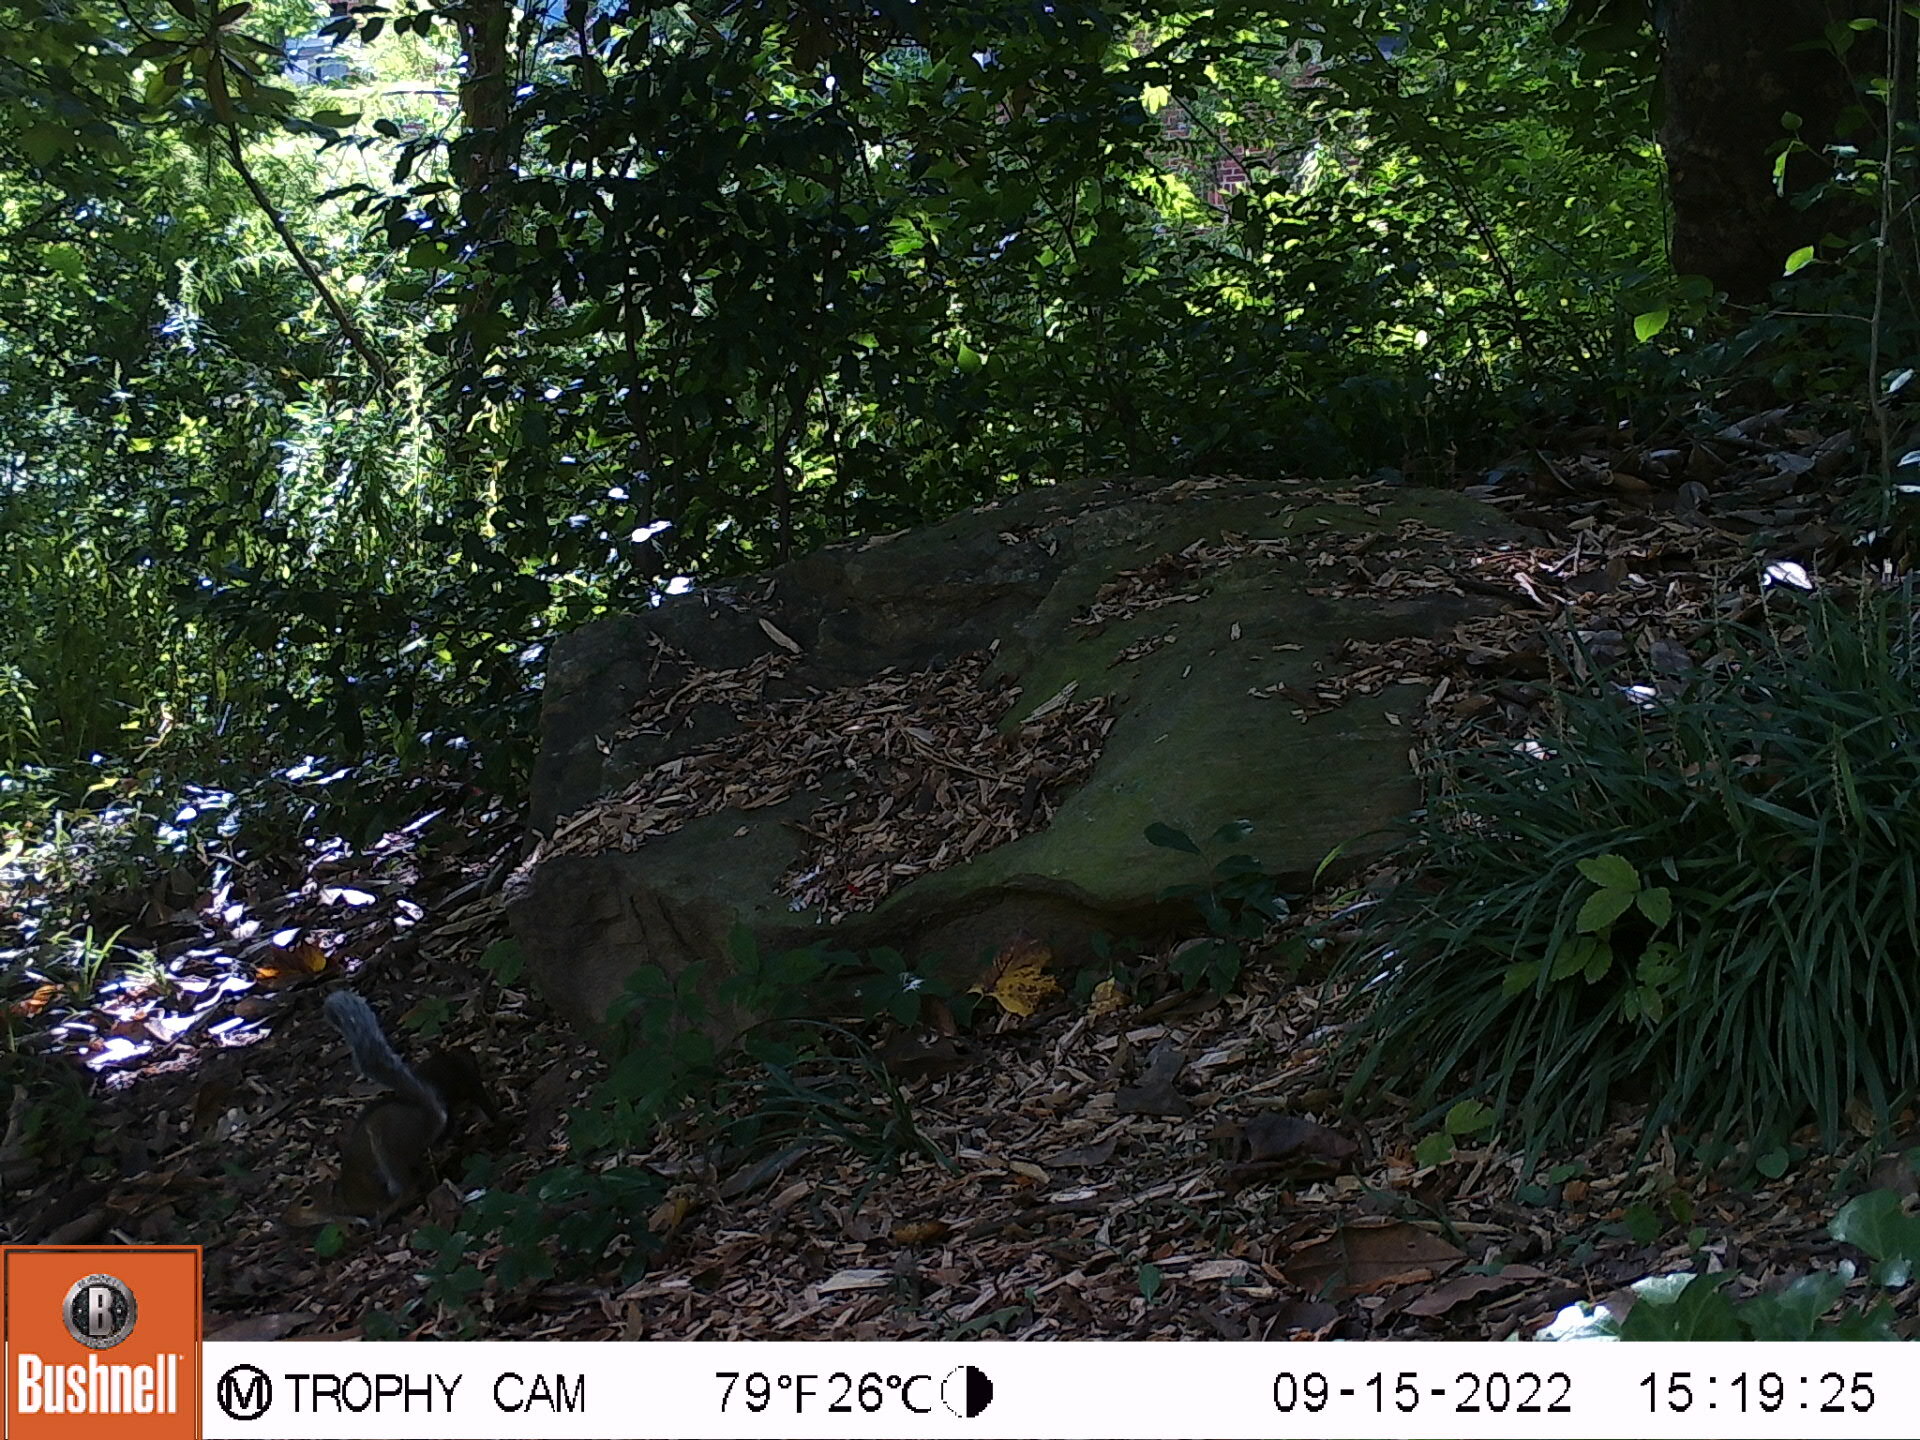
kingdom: Animalia
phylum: Chordata
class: Mammalia
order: Rodentia
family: Sciuridae
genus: Sciurus
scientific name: Sciurus carolinensis
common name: Eastern gray squirrel
